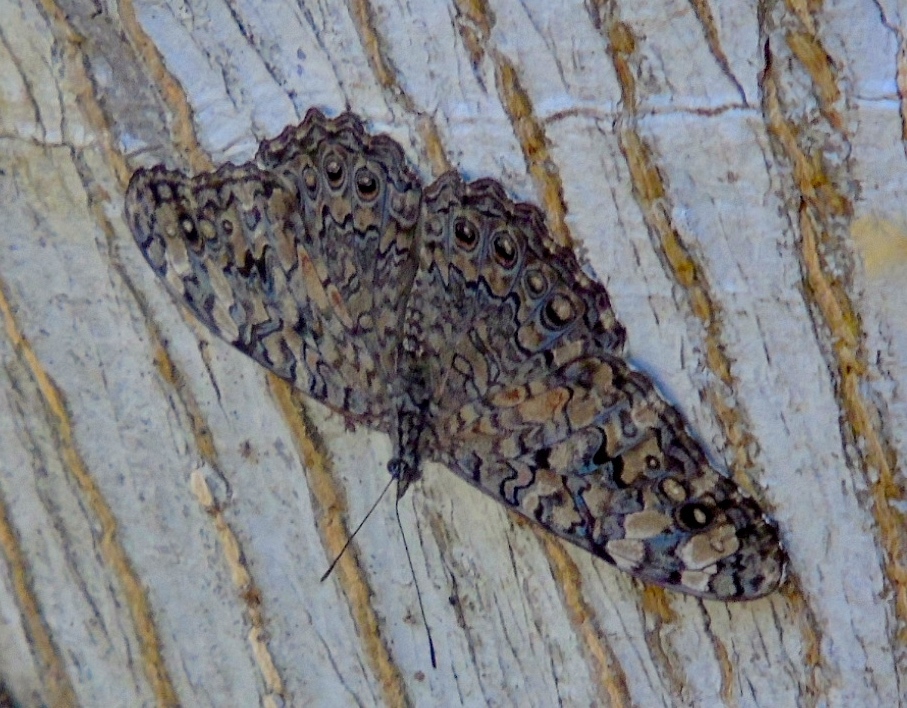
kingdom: Animalia
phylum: Arthropoda
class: Insecta
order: Lepidoptera
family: Nymphalidae
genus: Hamadryas
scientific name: Hamadryas februa
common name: Gray cracker
